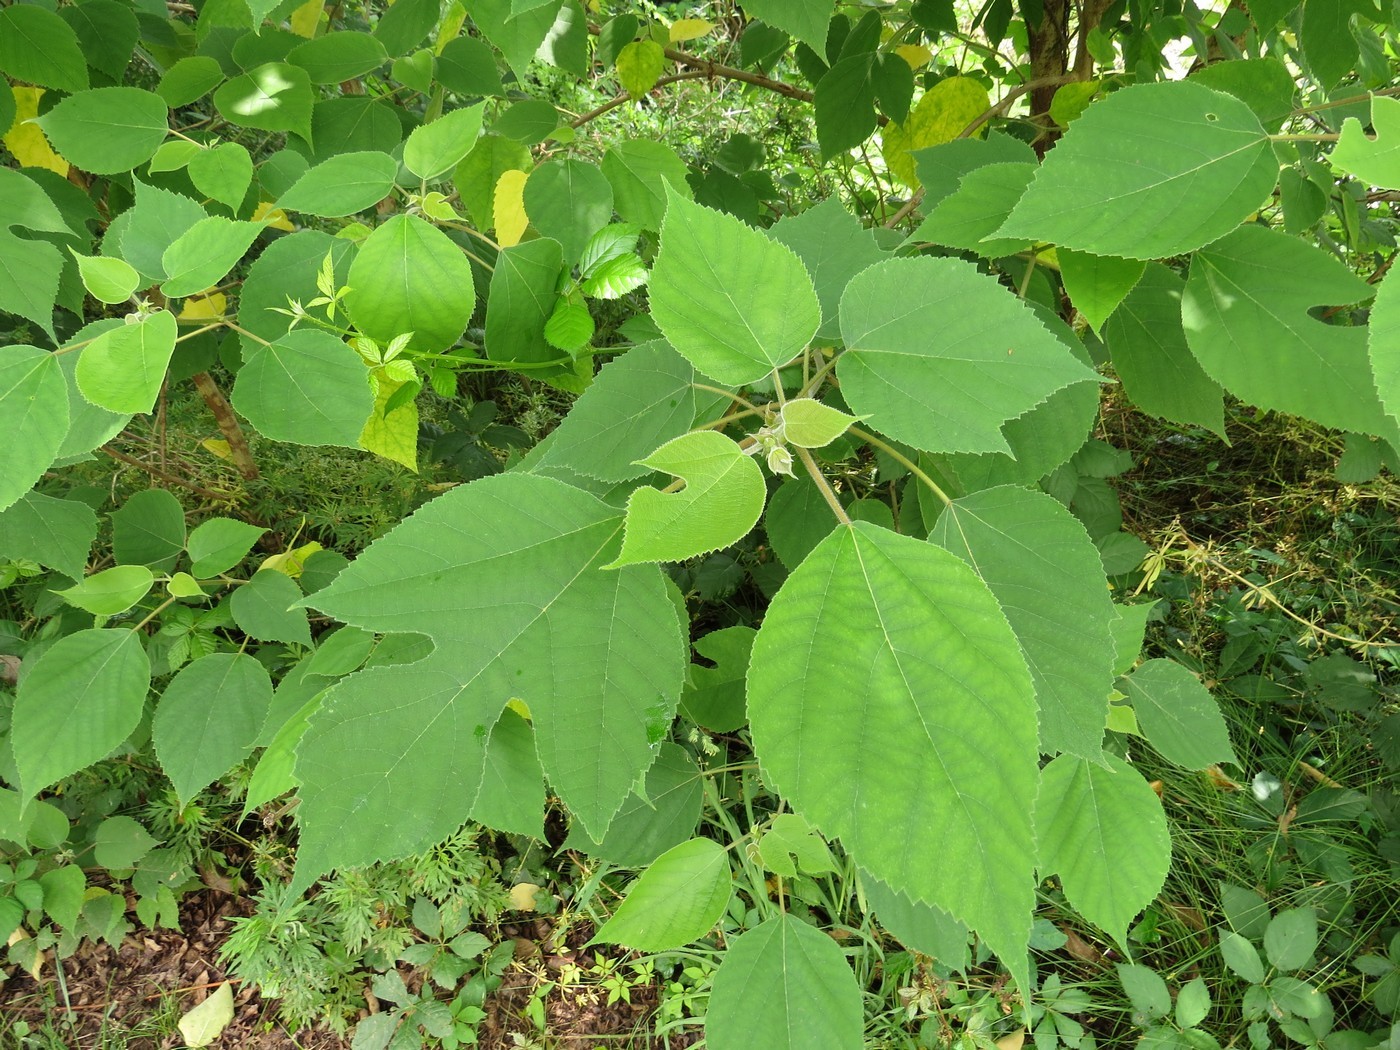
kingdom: Plantae
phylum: Tracheophyta
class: Magnoliopsida
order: Rosales
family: Moraceae
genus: Broussonetia
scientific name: Broussonetia papyrifera
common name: Paper mulberry
